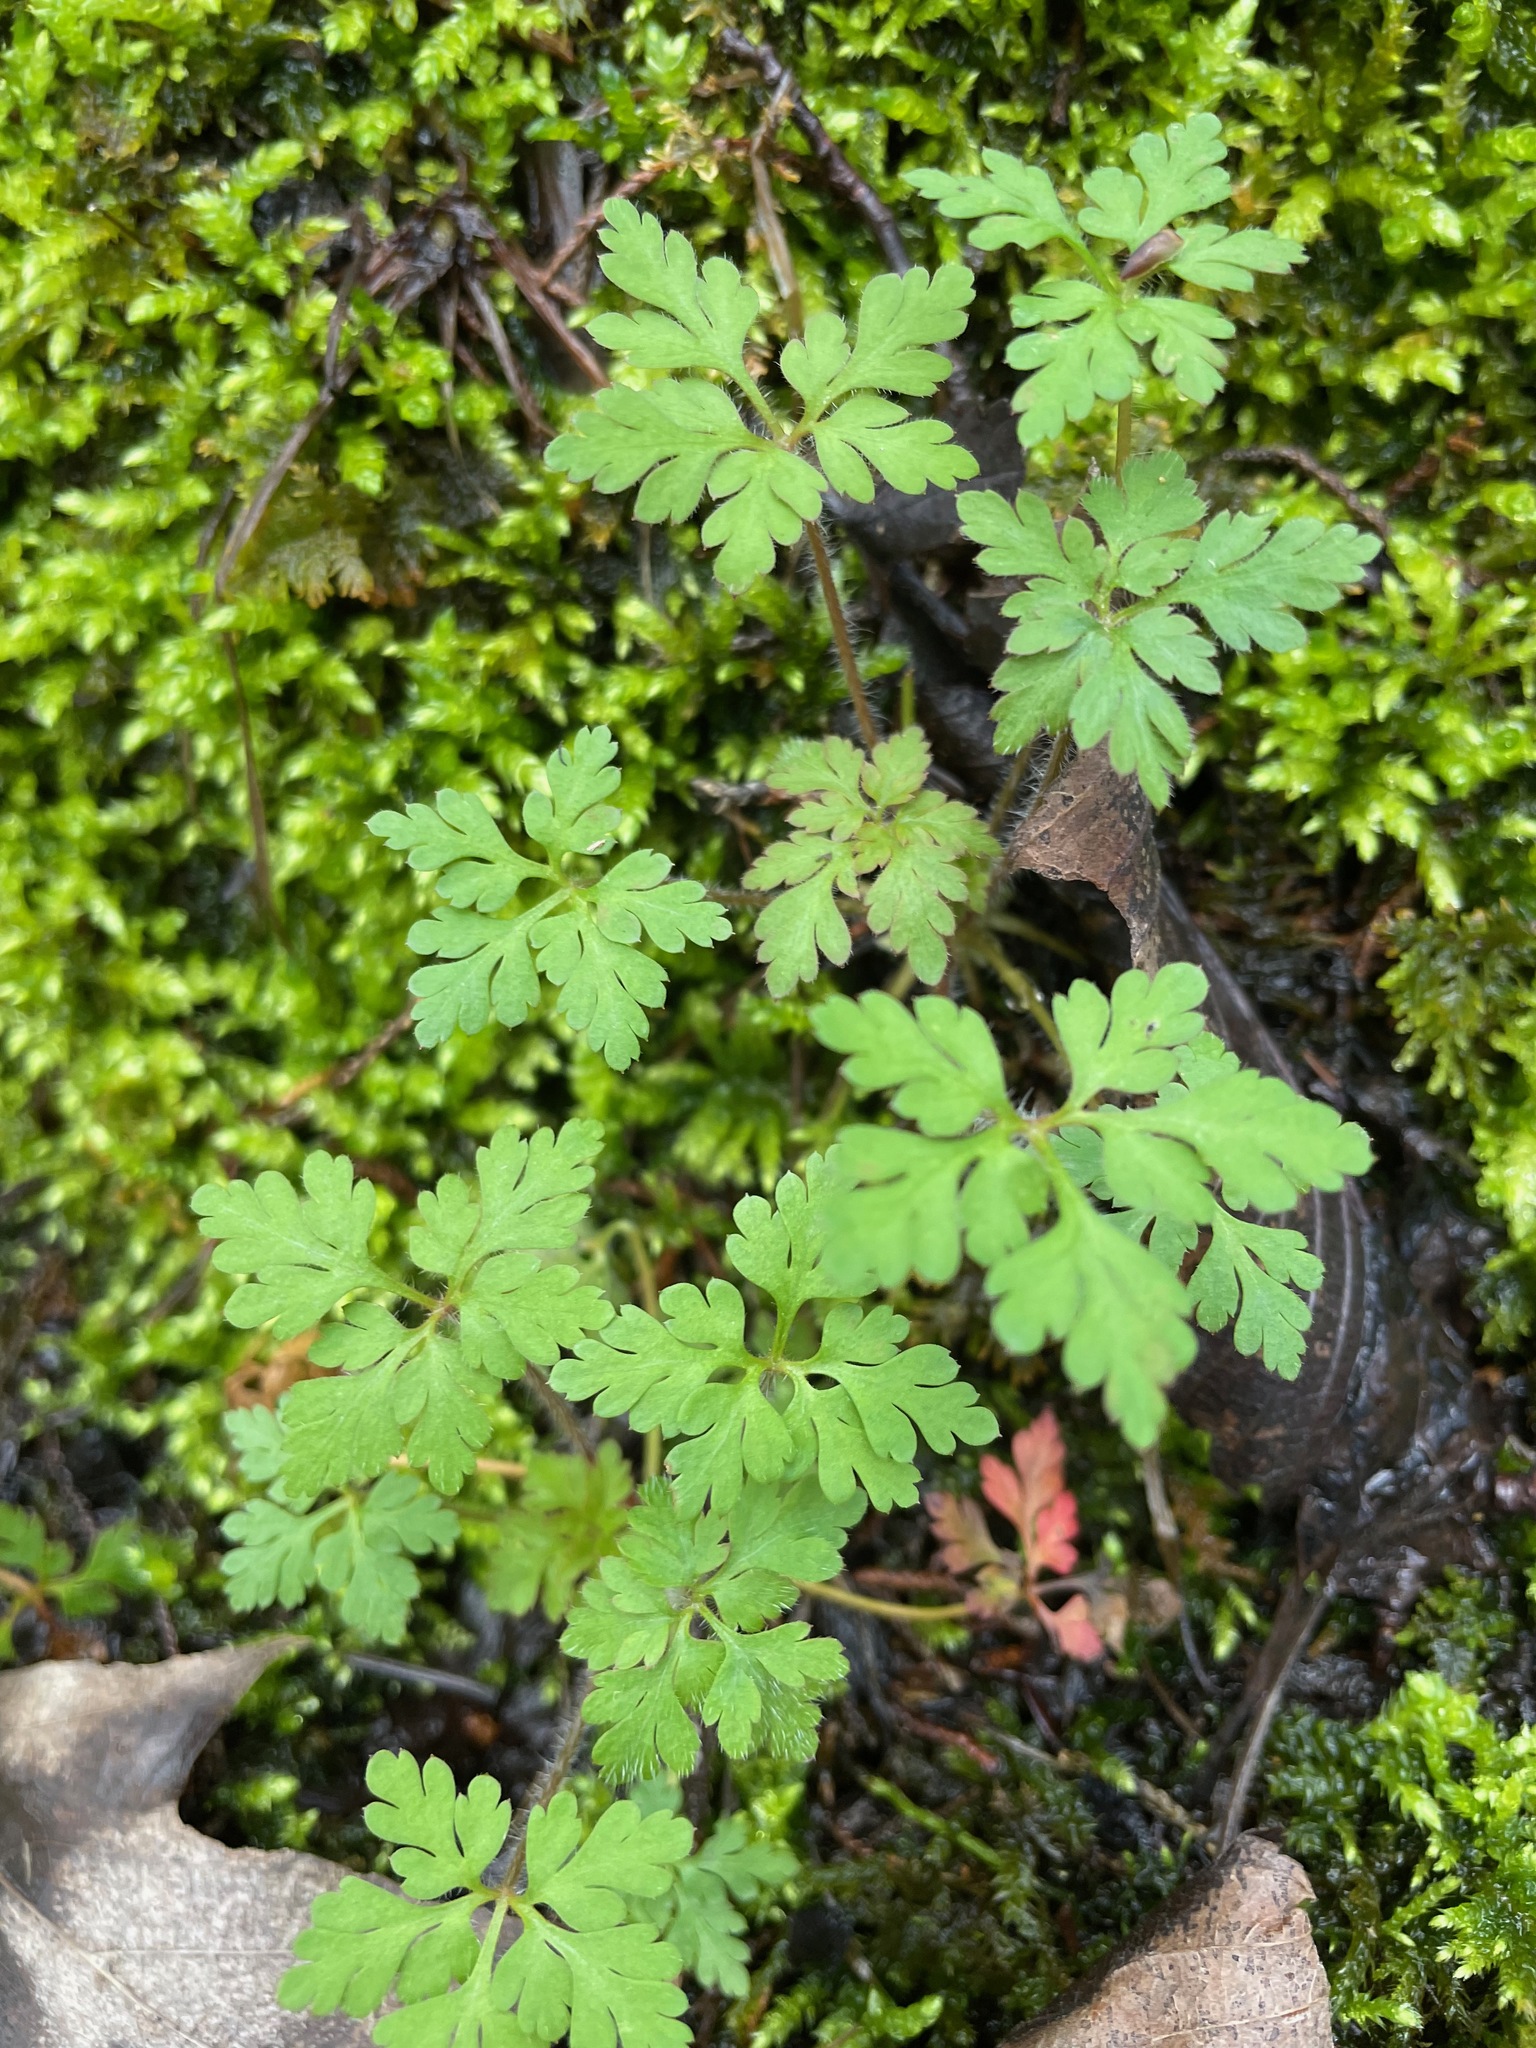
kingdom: Plantae
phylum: Tracheophyta
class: Magnoliopsida
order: Geraniales
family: Geraniaceae
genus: Geranium
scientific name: Geranium robertianum
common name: Herb-robert
